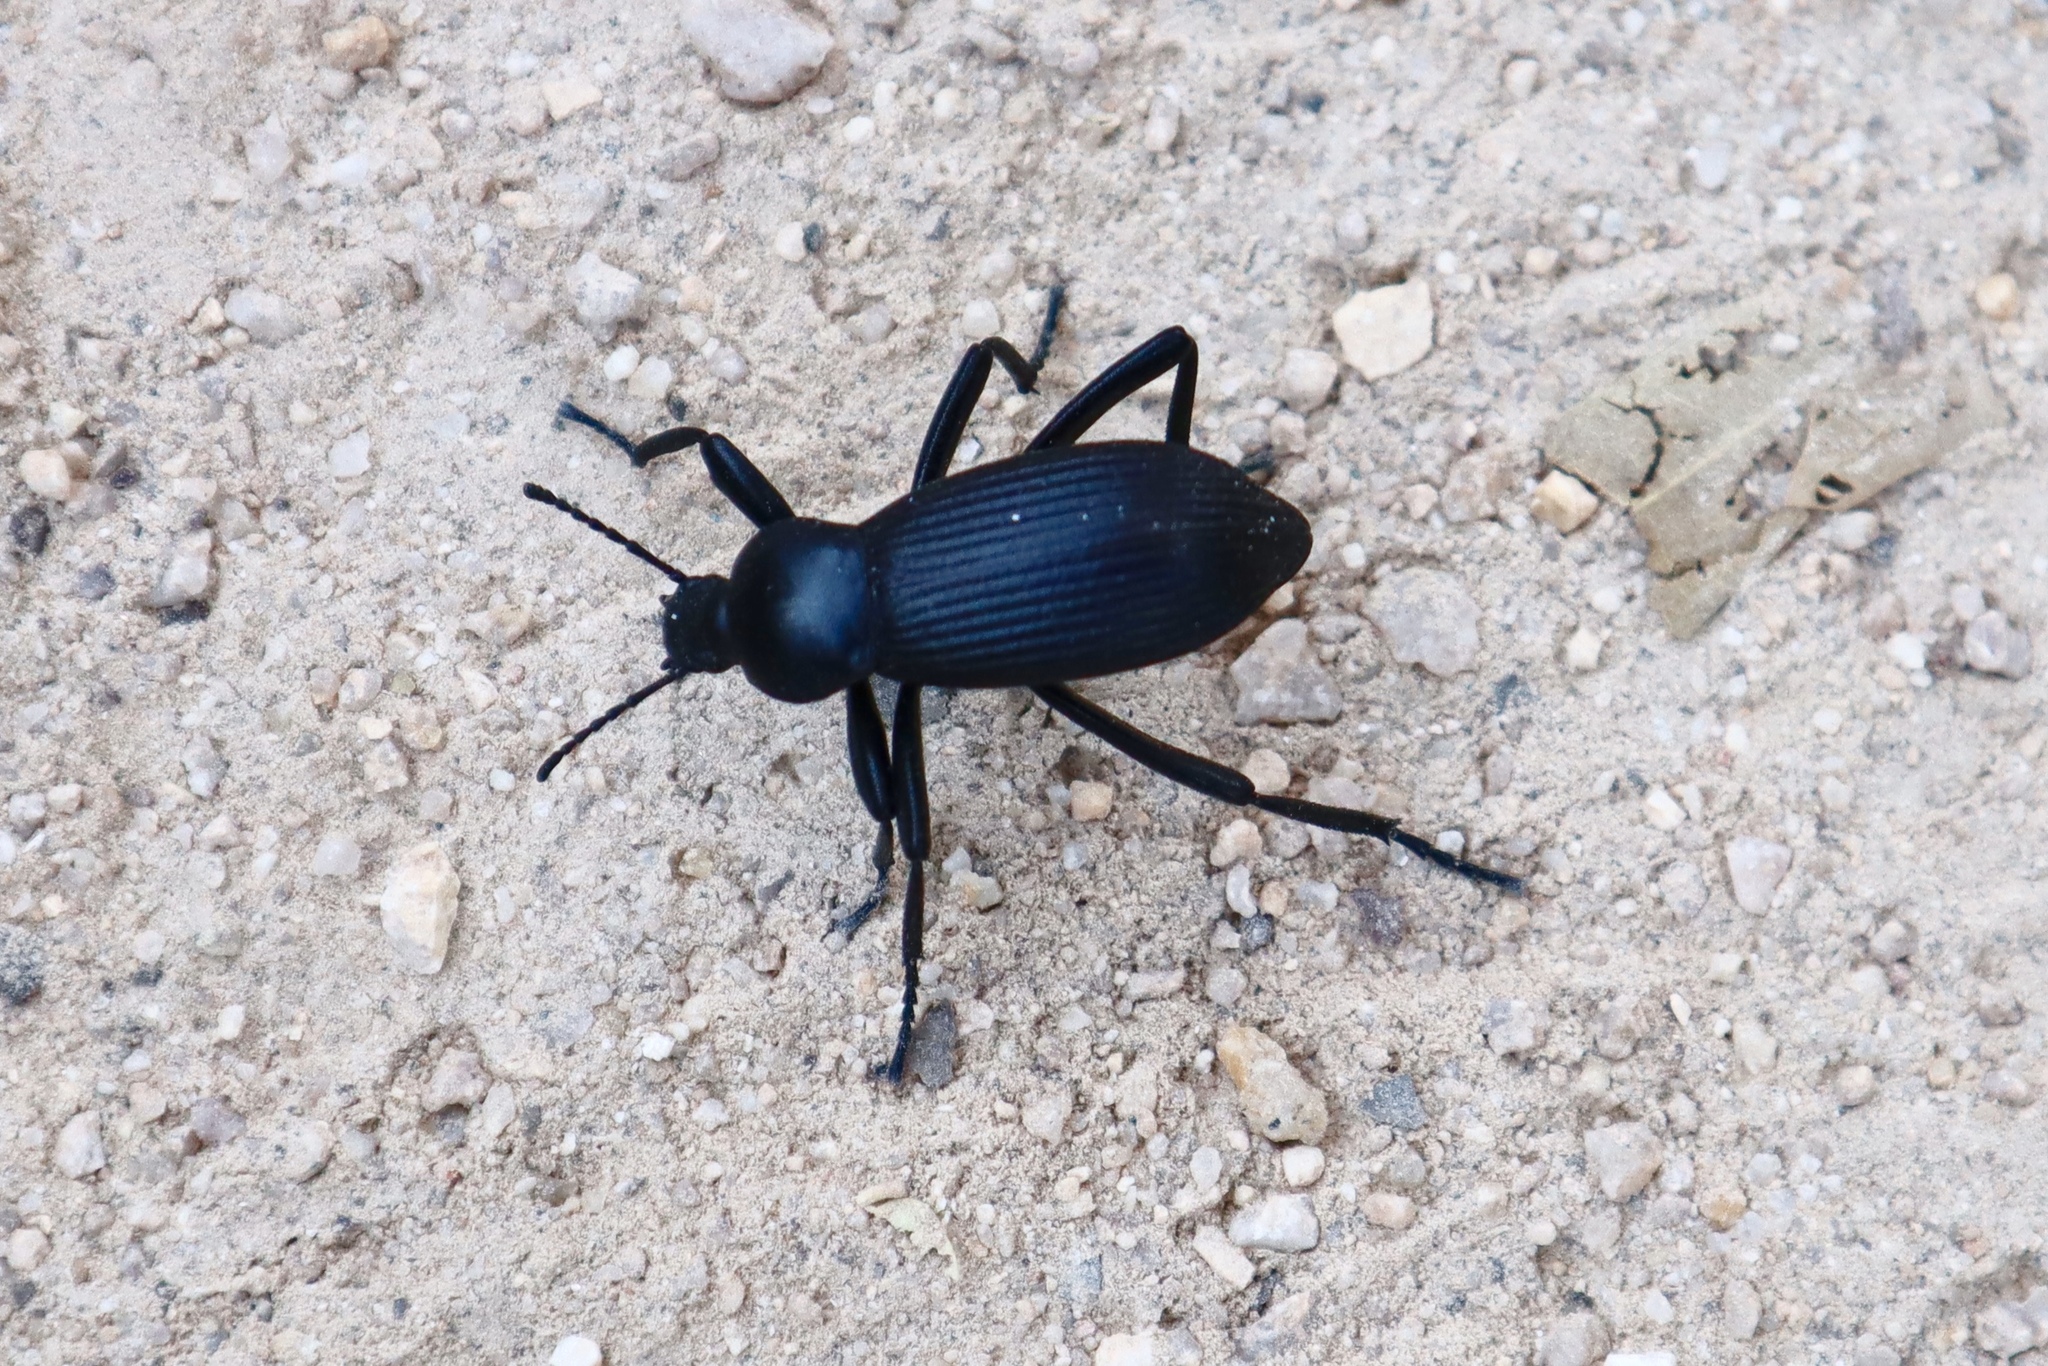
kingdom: Animalia
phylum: Arthropoda
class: Insecta
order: Coleoptera
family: Tenebrionidae
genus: Eleodes
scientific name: Eleodes obscura
